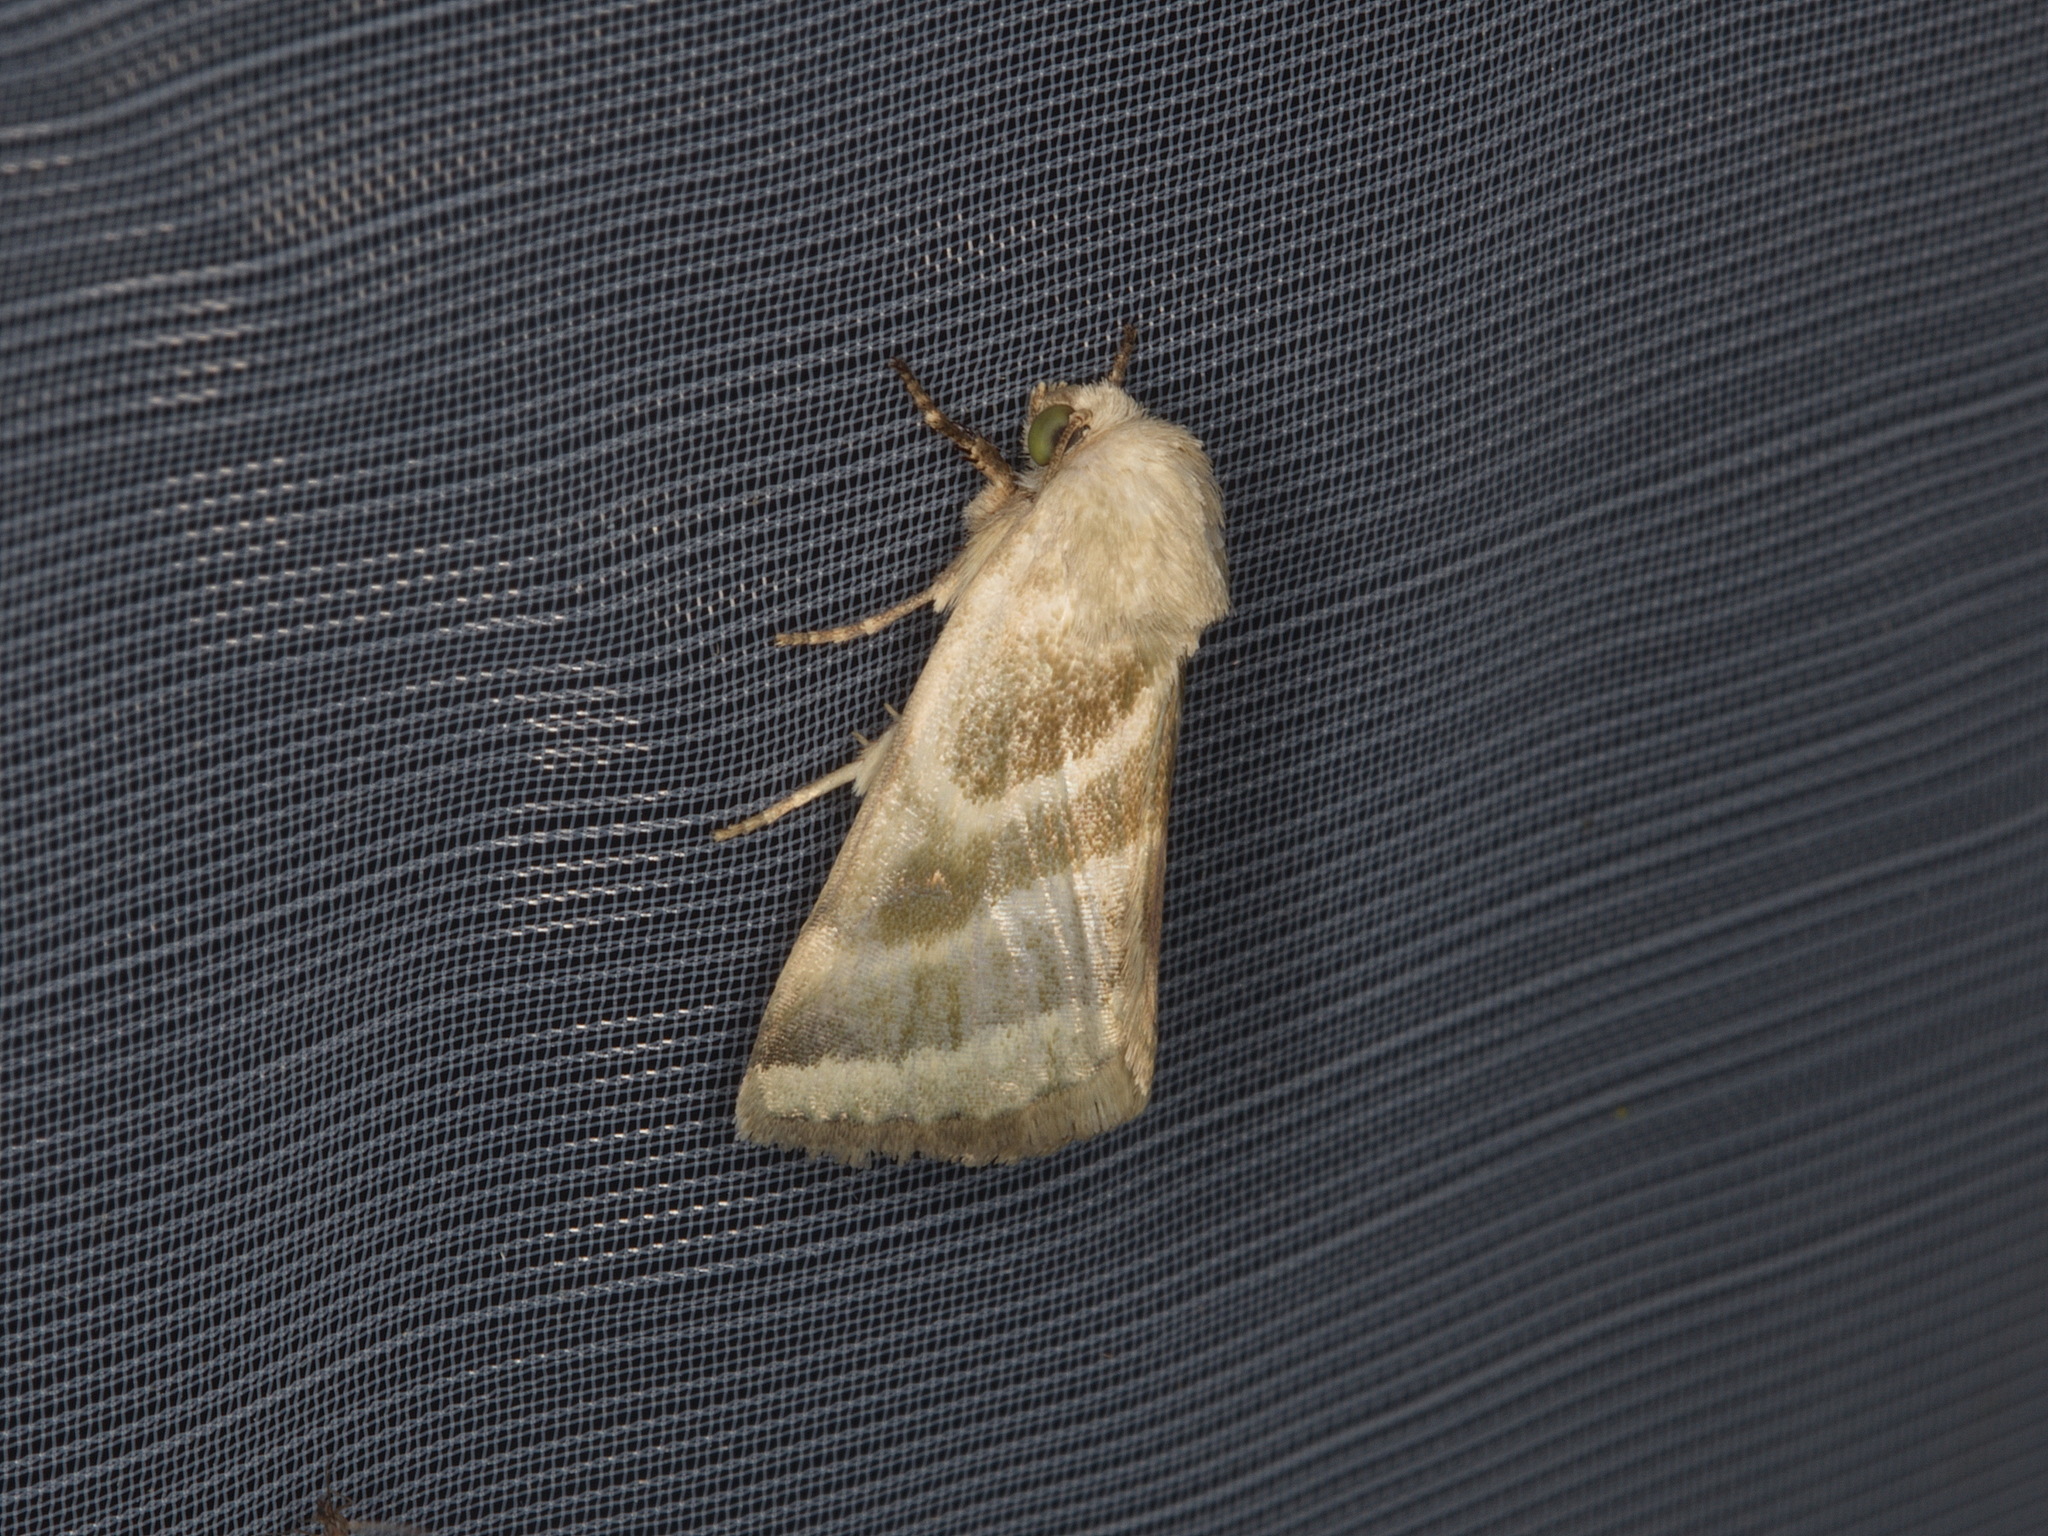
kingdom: Animalia
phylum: Arthropoda
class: Insecta
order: Lepidoptera
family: Noctuidae
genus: Schinia
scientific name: Schinia trifascia
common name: Three-lined flower moth
